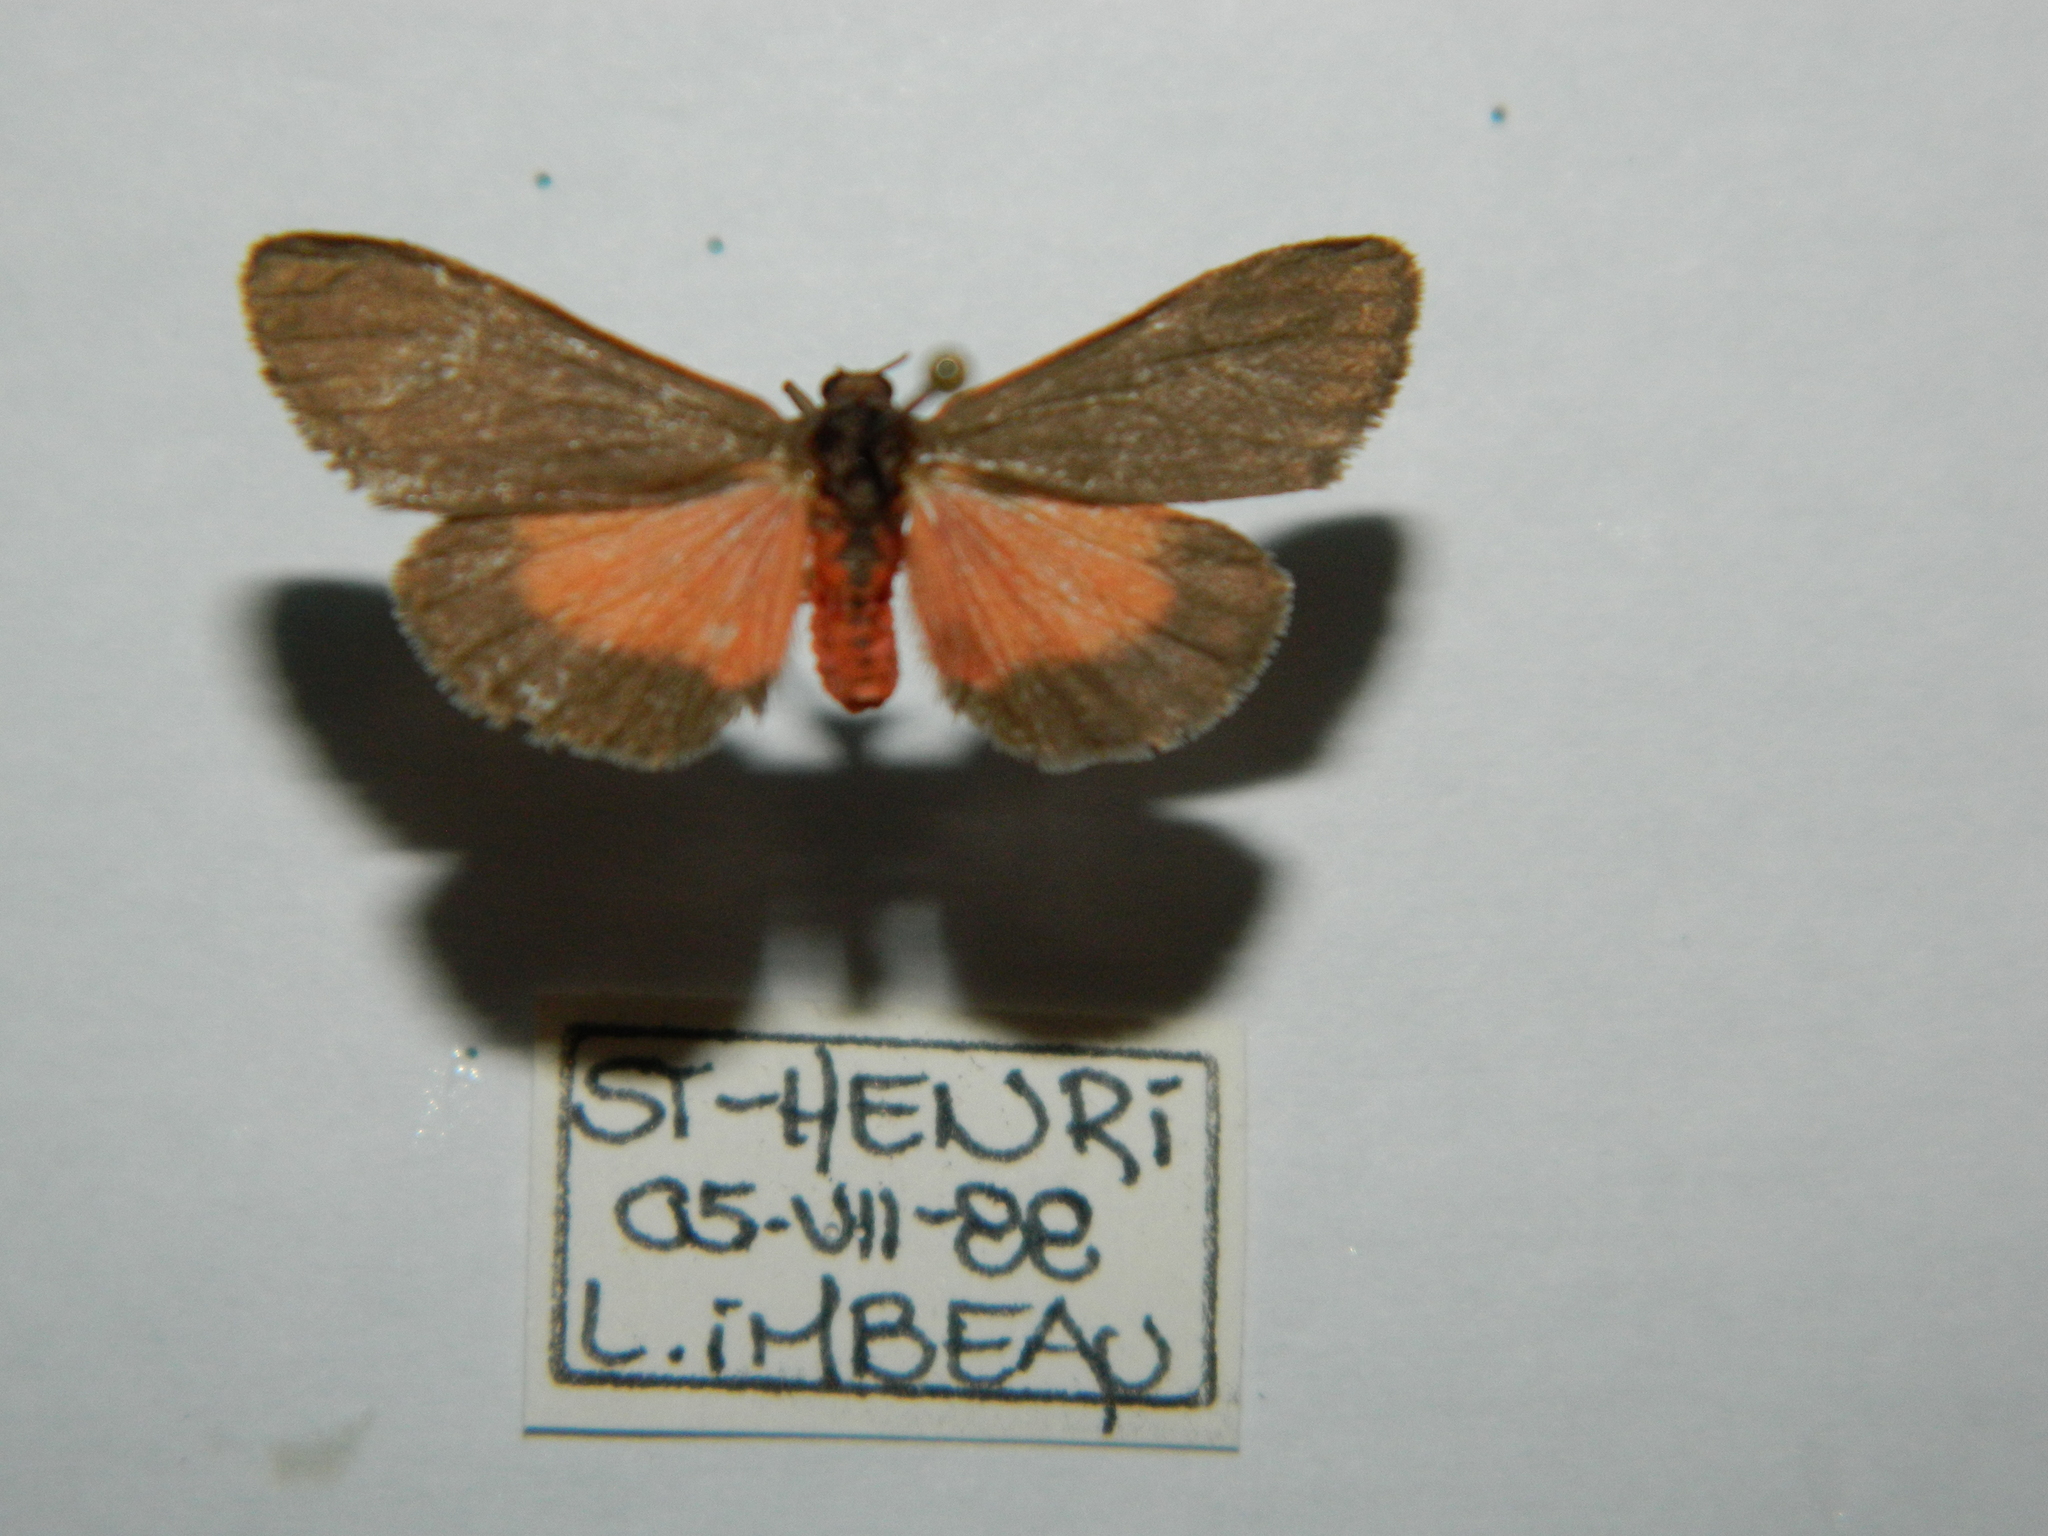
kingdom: Animalia
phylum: Arthropoda
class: Insecta
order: Lepidoptera
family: Erebidae
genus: Virbia
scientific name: Virbia laeta
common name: Joyful holomelina moth
